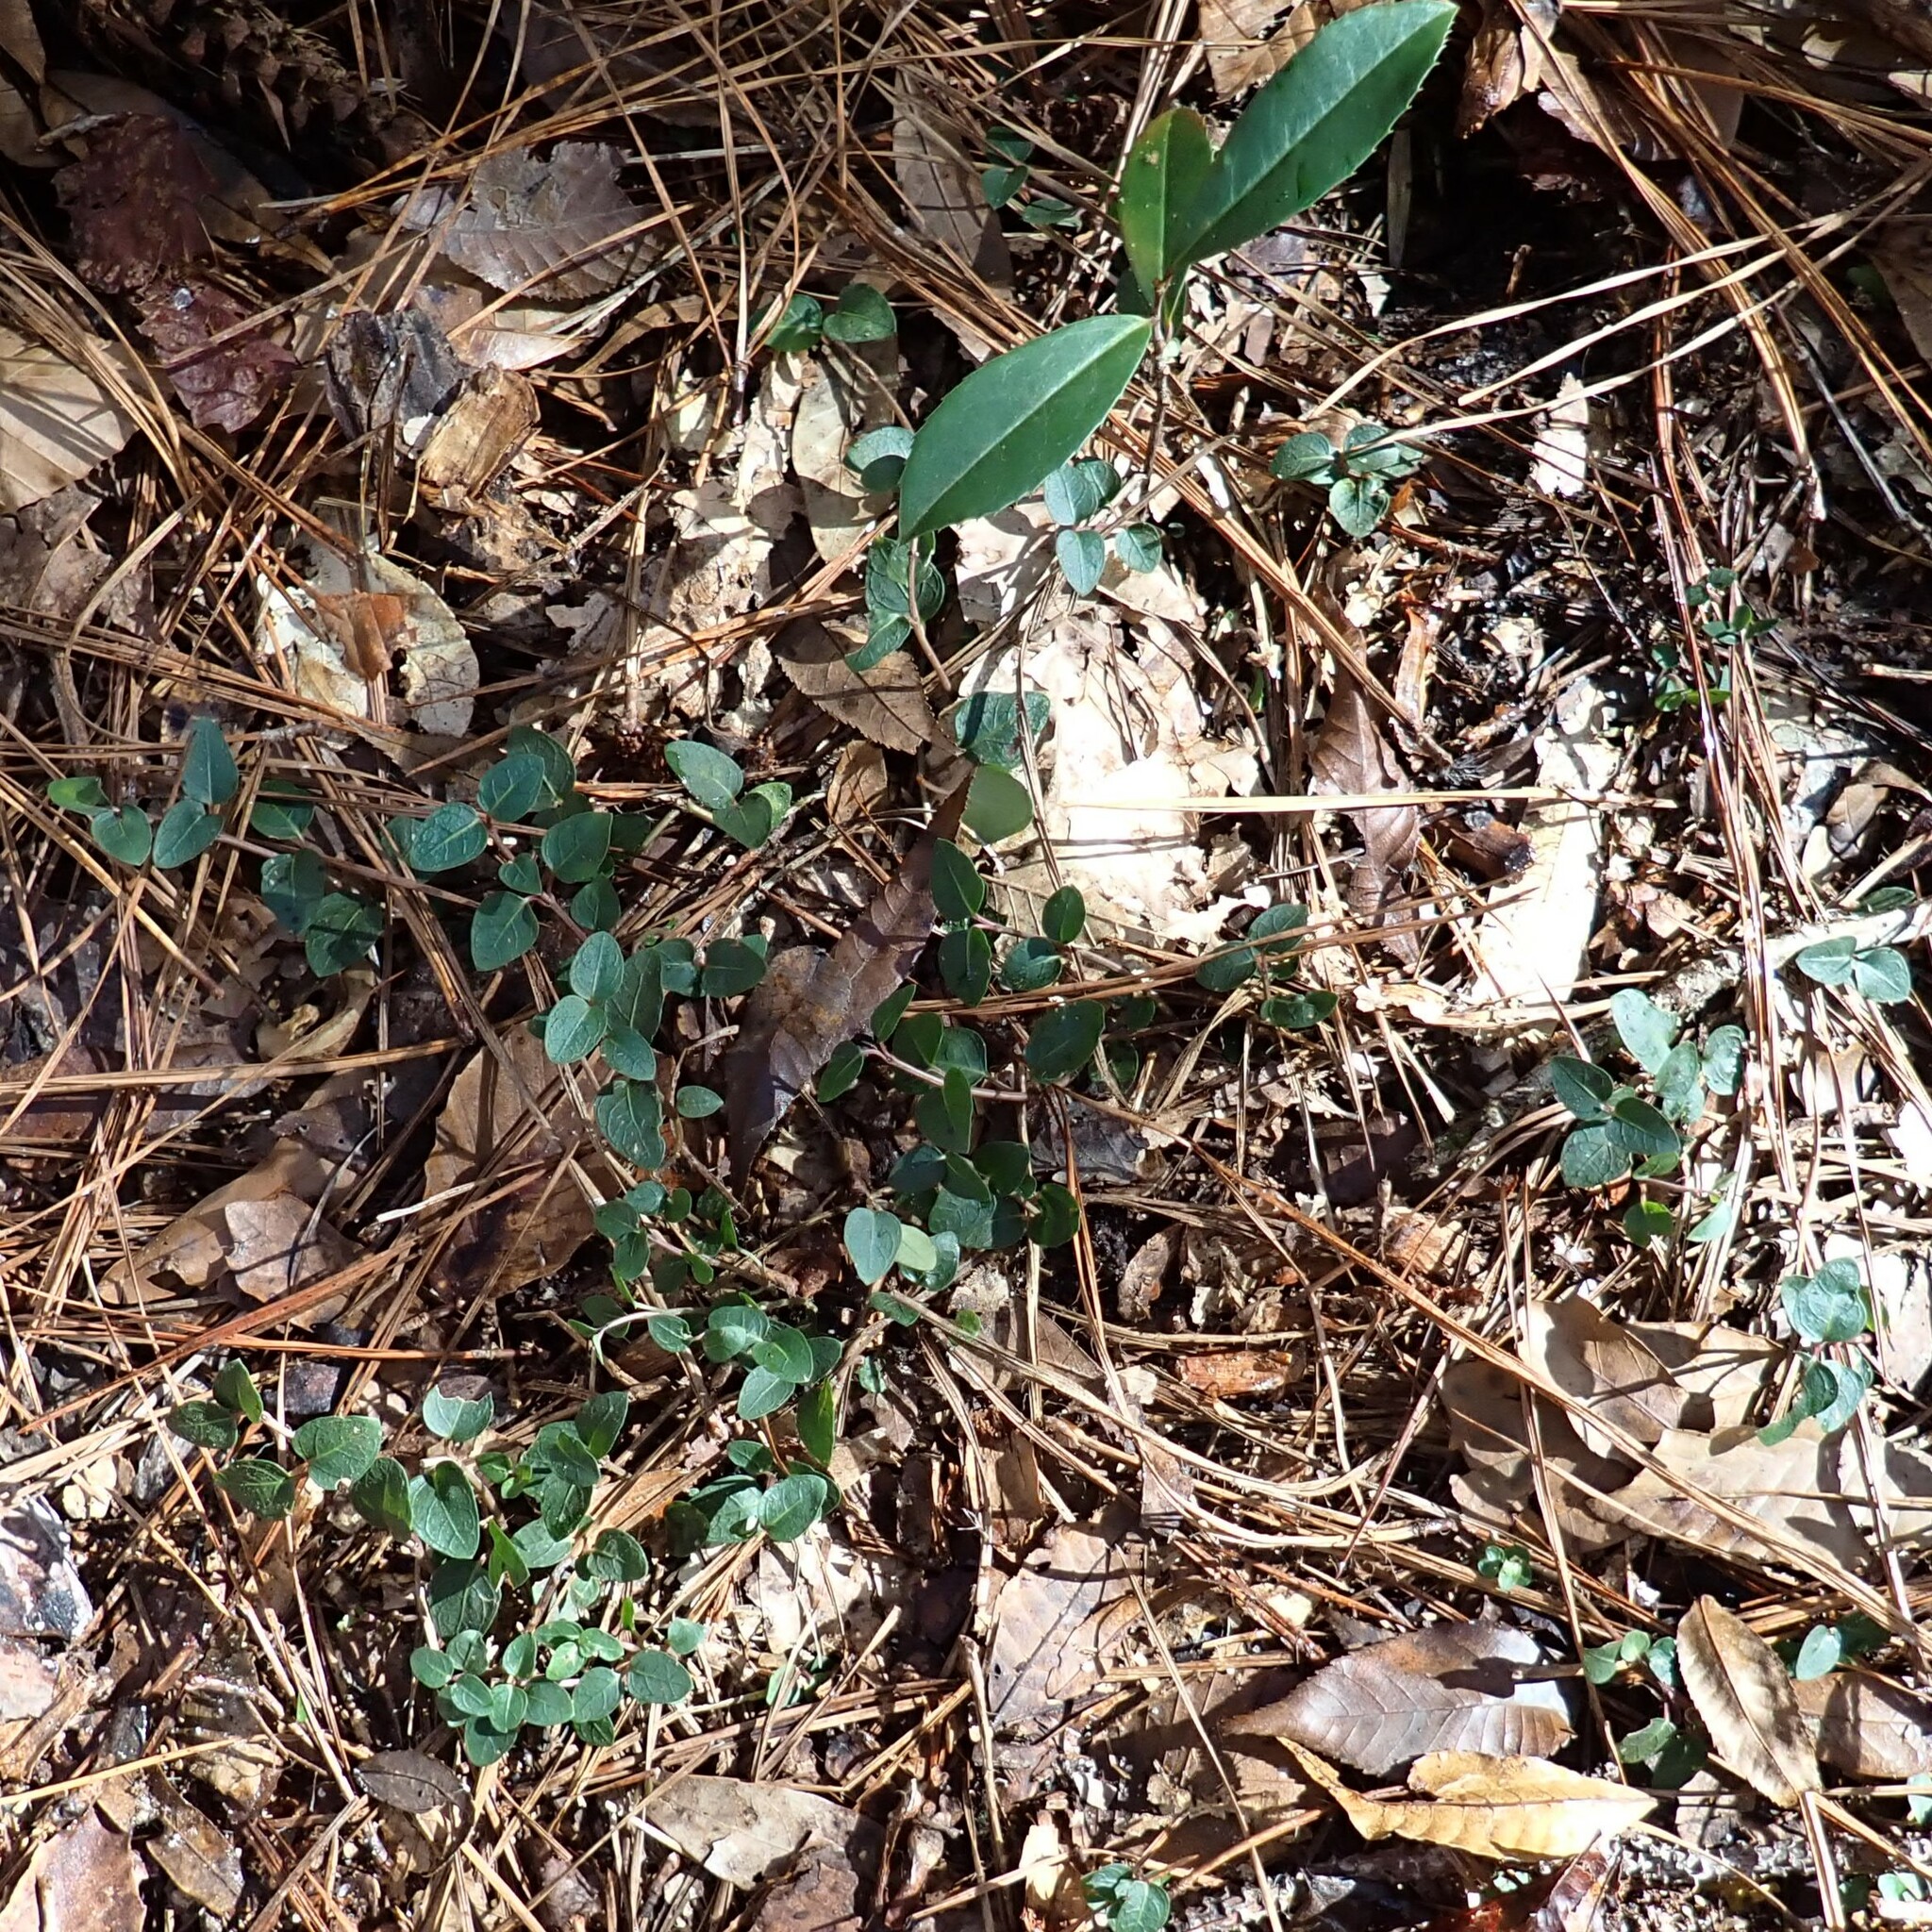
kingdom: Plantae
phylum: Tracheophyta
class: Magnoliopsida
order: Gentianales
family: Rubiaceae
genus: Mitchella
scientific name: Mitchella repens
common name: Partridge-berry
